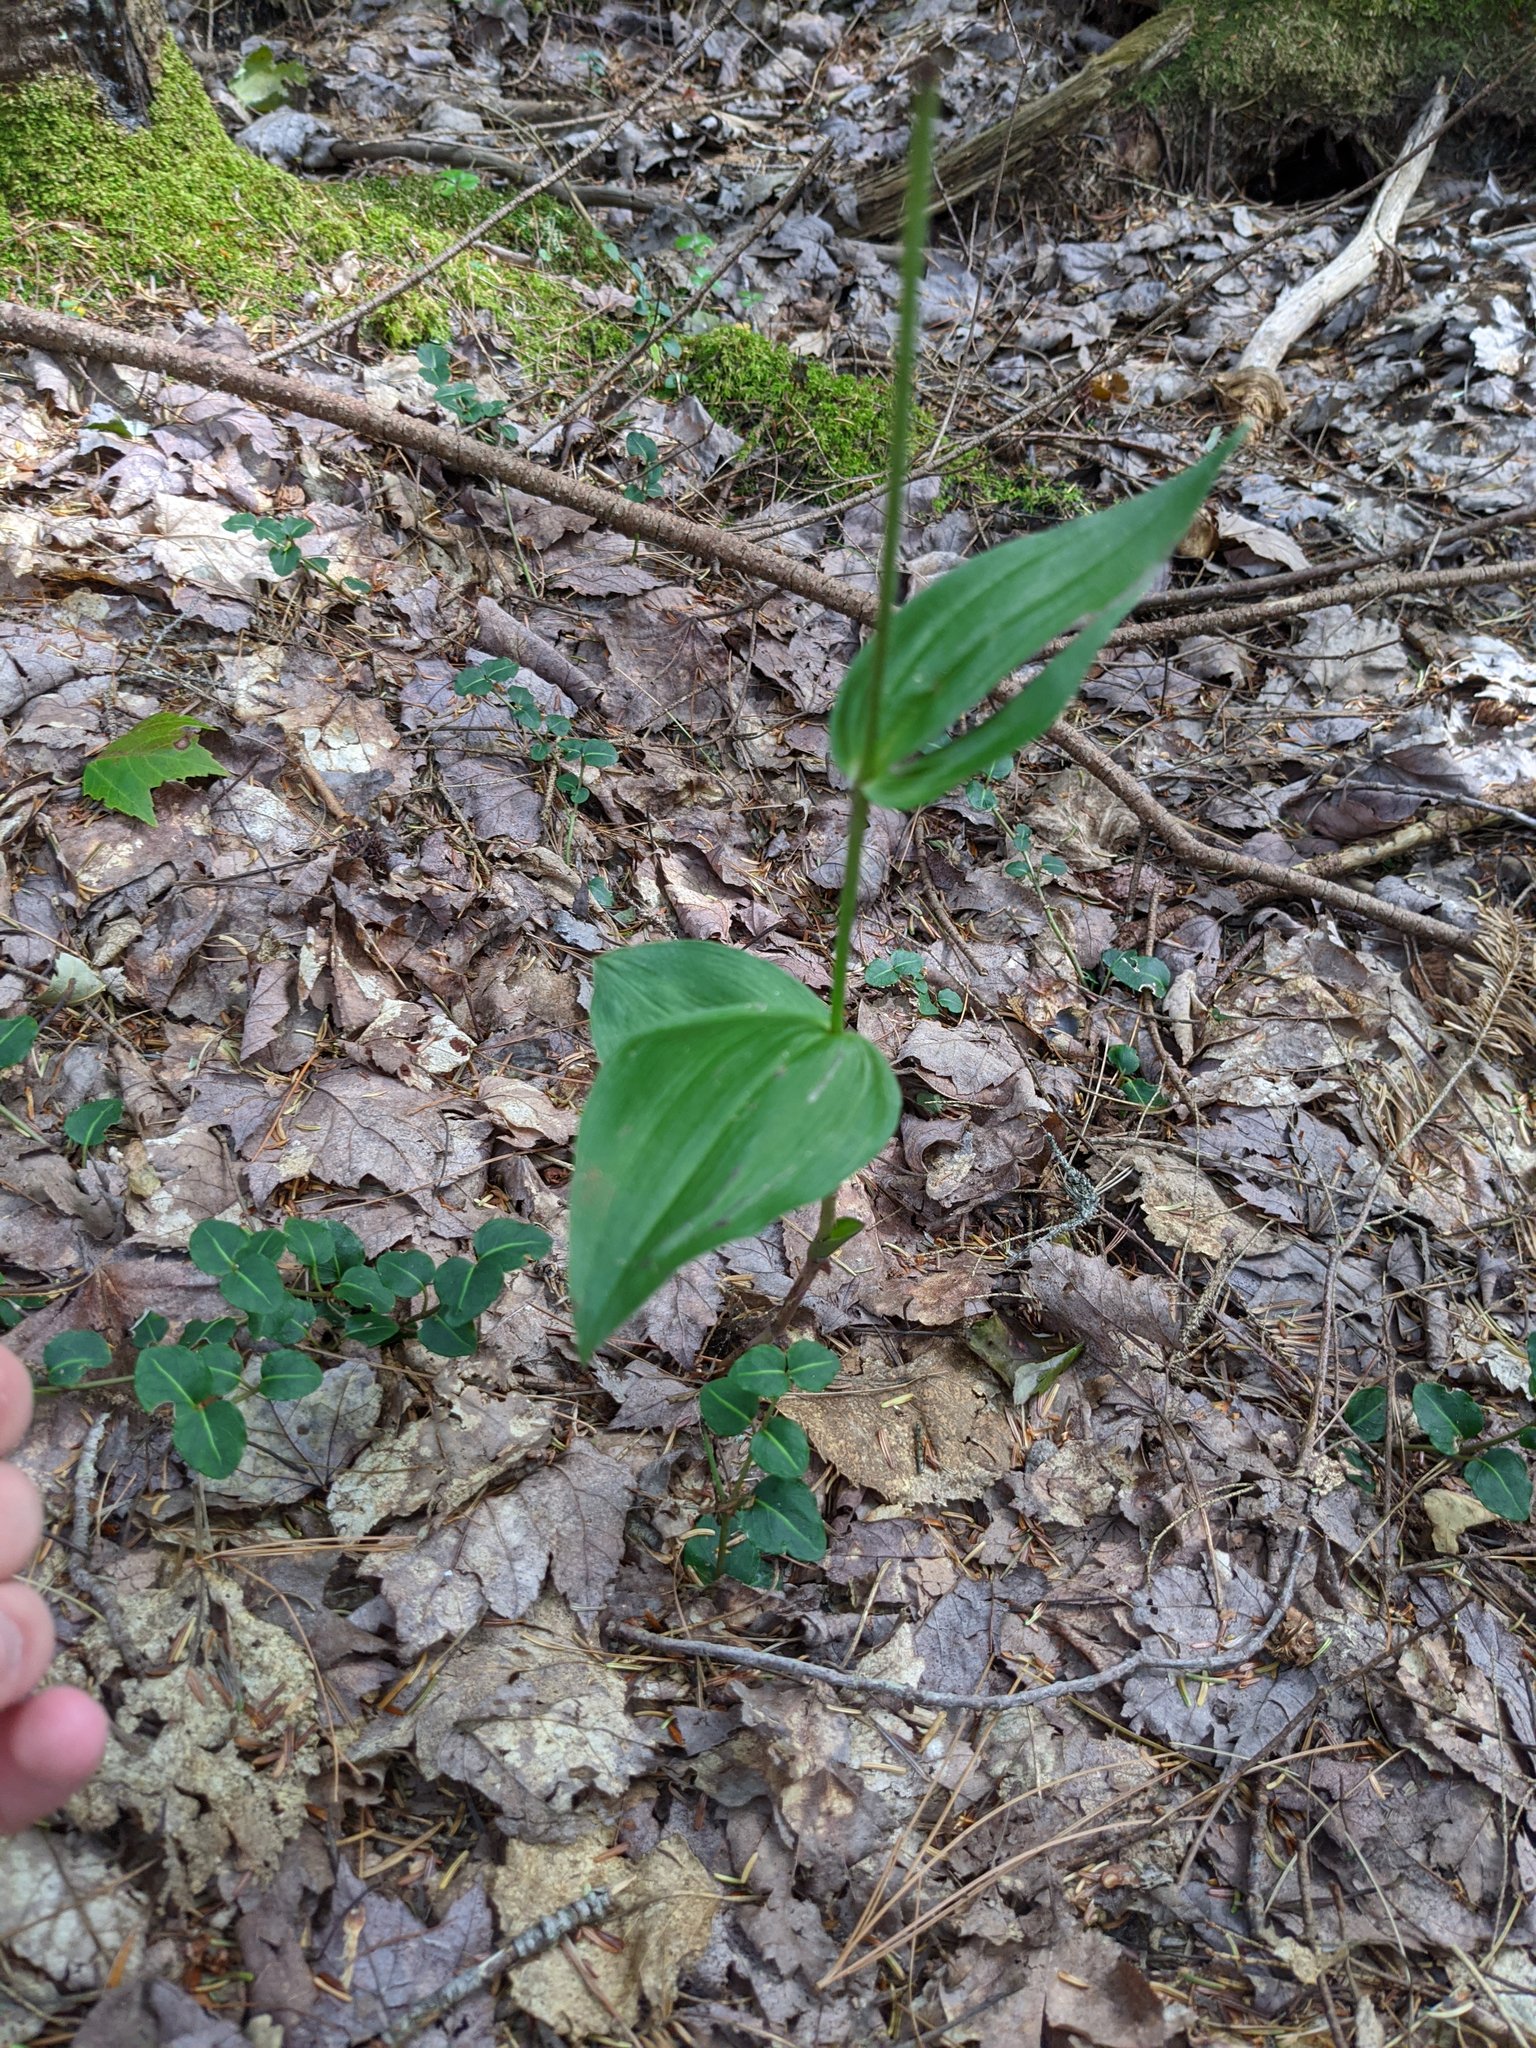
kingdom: Plantae
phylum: Tracheophyta
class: Liliopsida
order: Asparagales
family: Orchidaceae
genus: Epipactis
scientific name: Epipactis helleborine
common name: Broad-leaved helleborine
